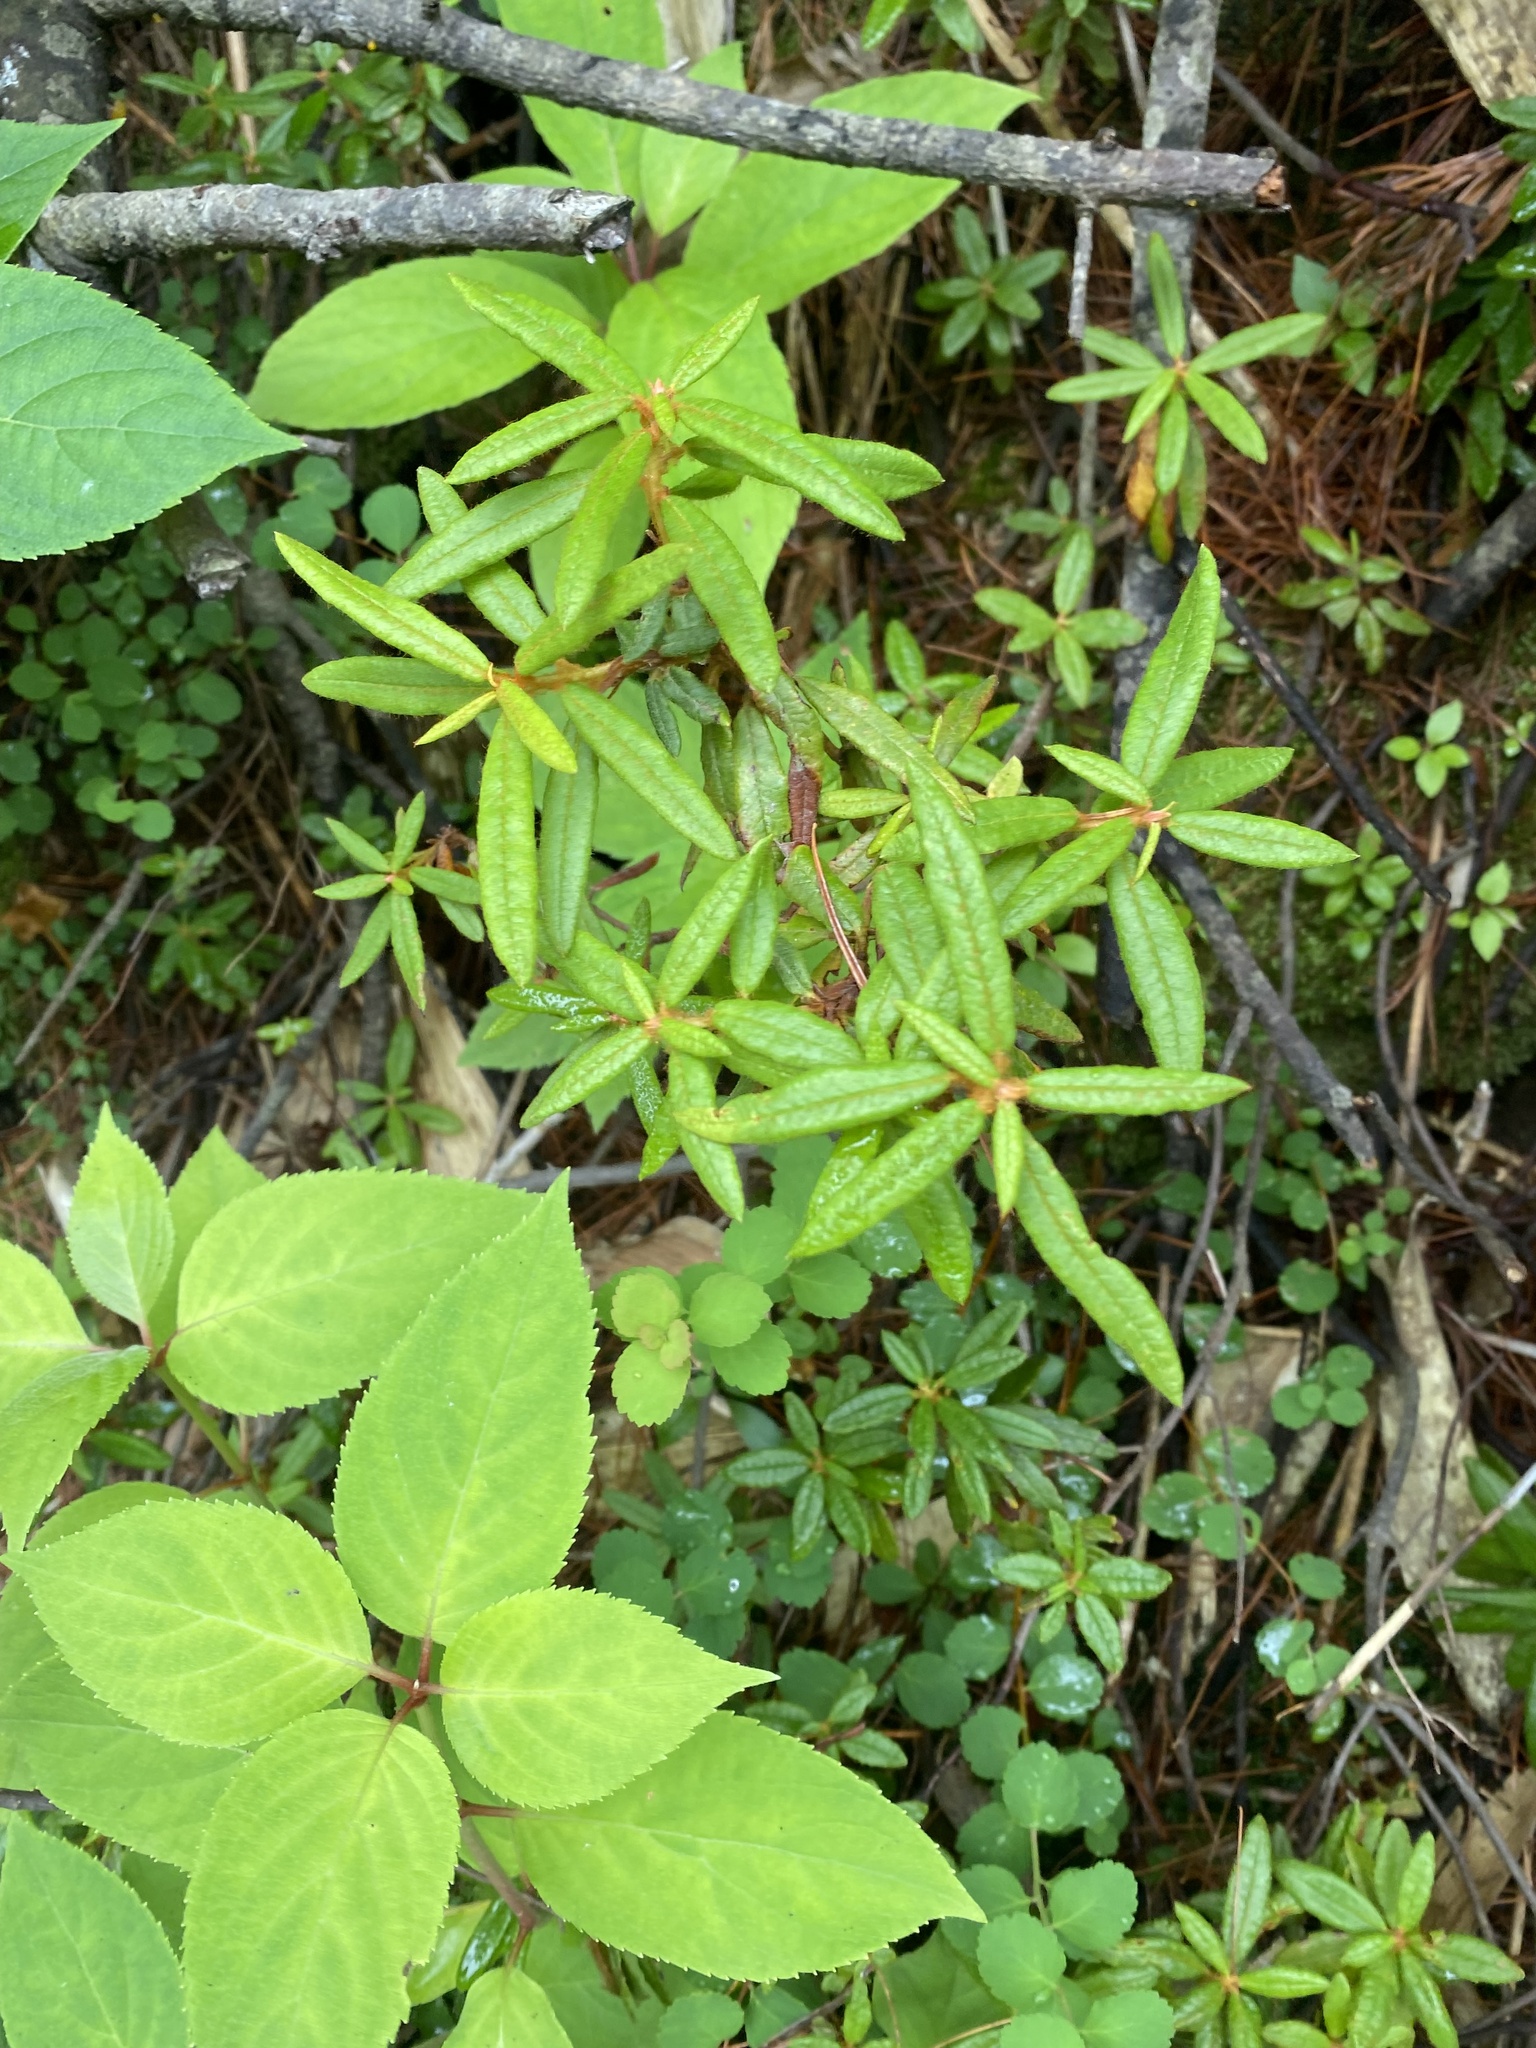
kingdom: Plantae
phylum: Tracheophyta
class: Magnoliopsida
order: Ericales
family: Ericaceae
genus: Rhododendron
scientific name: Rhododendron tomentosum
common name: Marsh labrador tea
